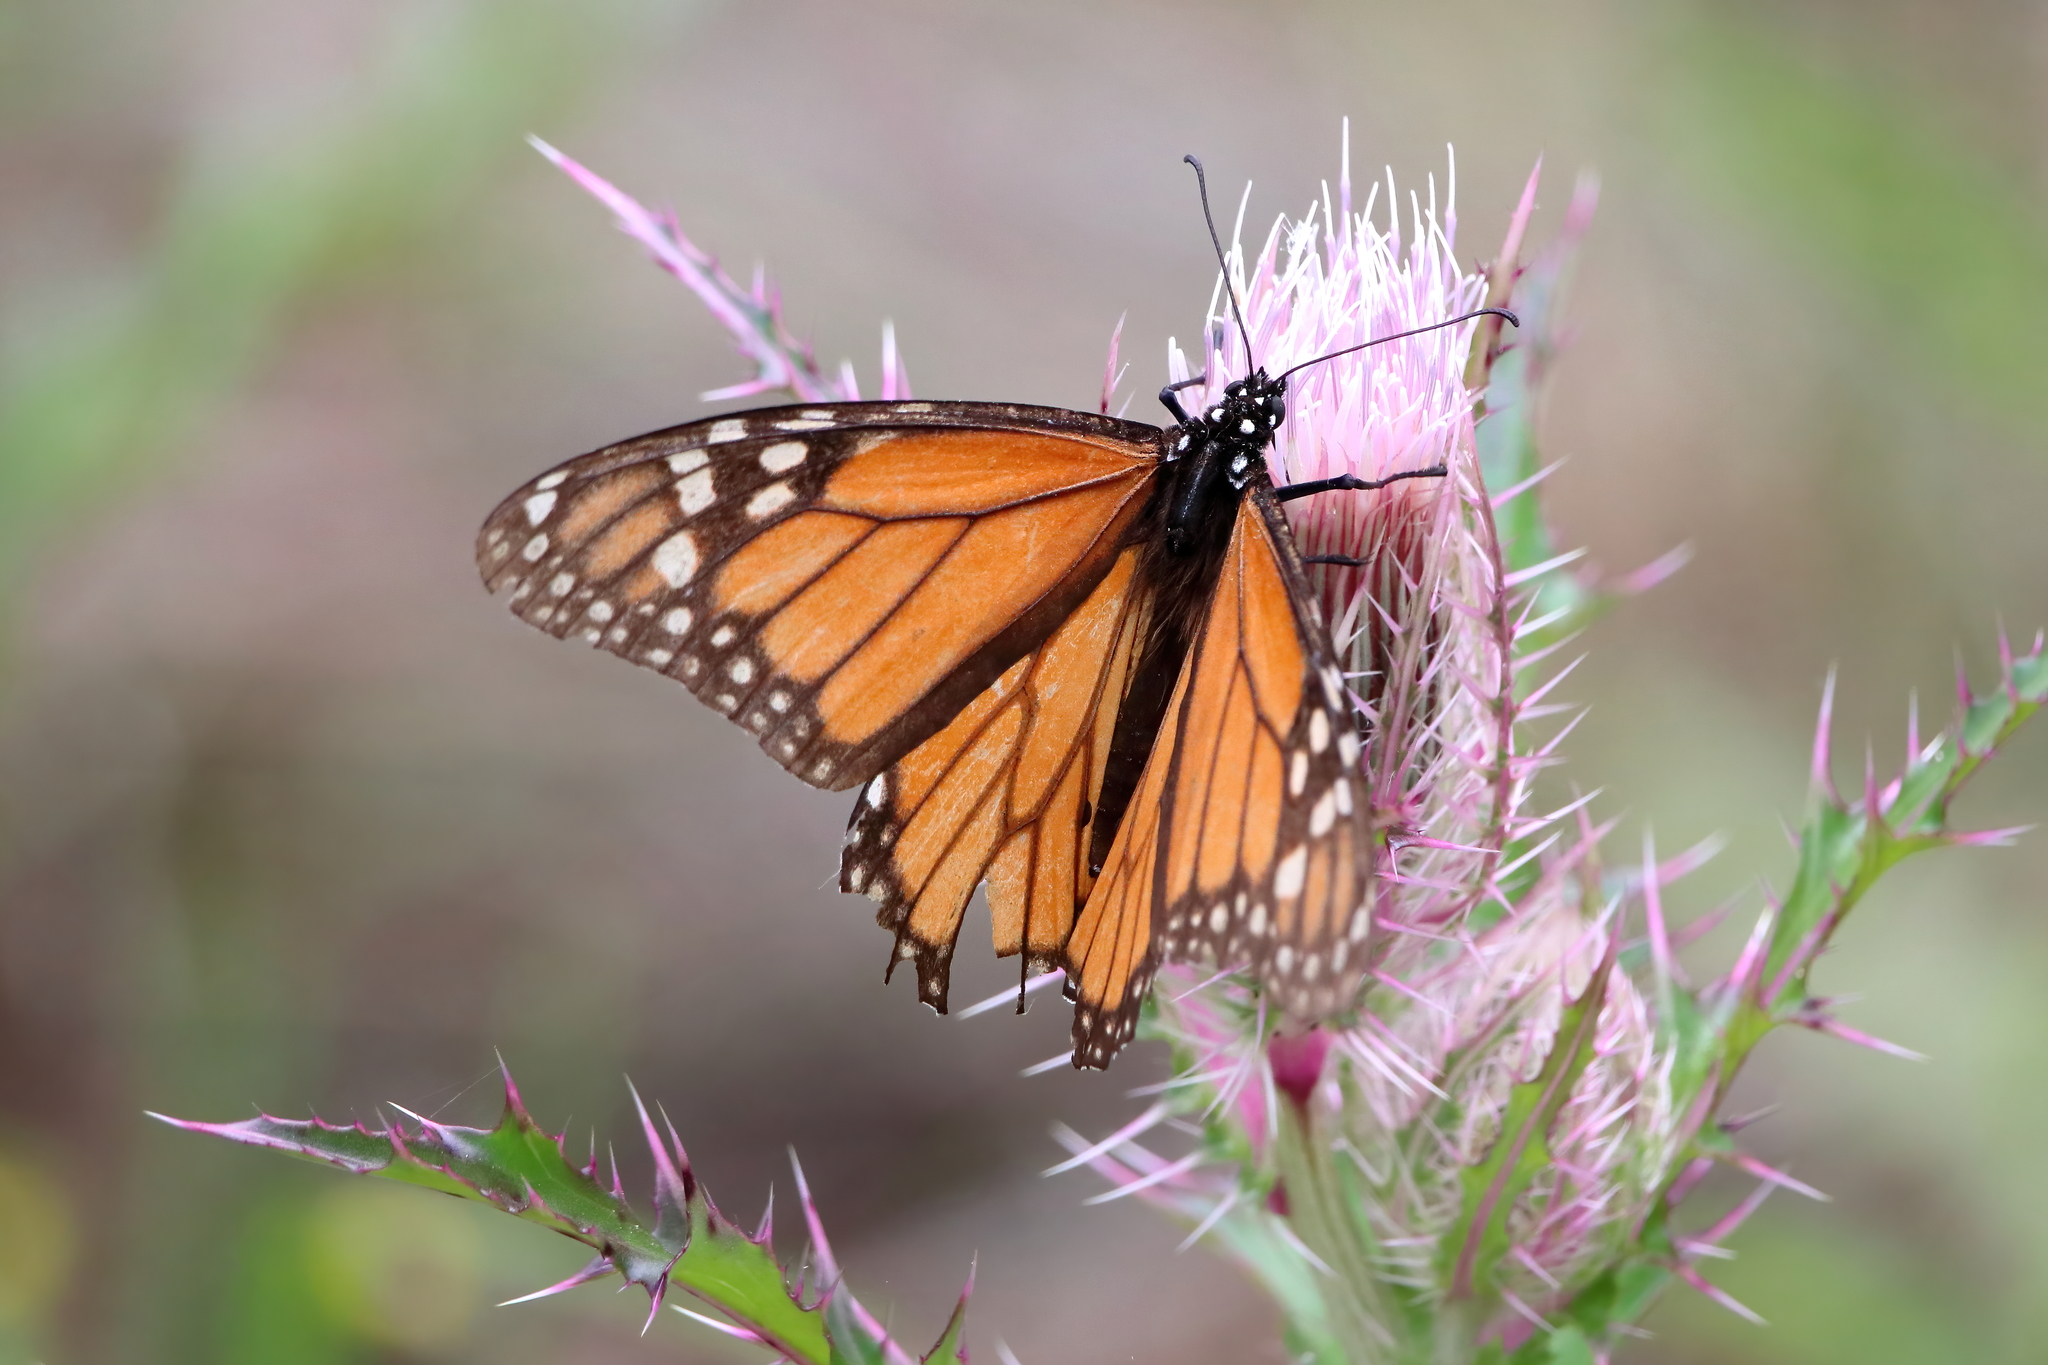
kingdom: Animalia
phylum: Arthropoda
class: Insecta
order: Lepidoptera
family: Nymphalidae
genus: Danaus
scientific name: Danaus plexippus
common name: Monarch
